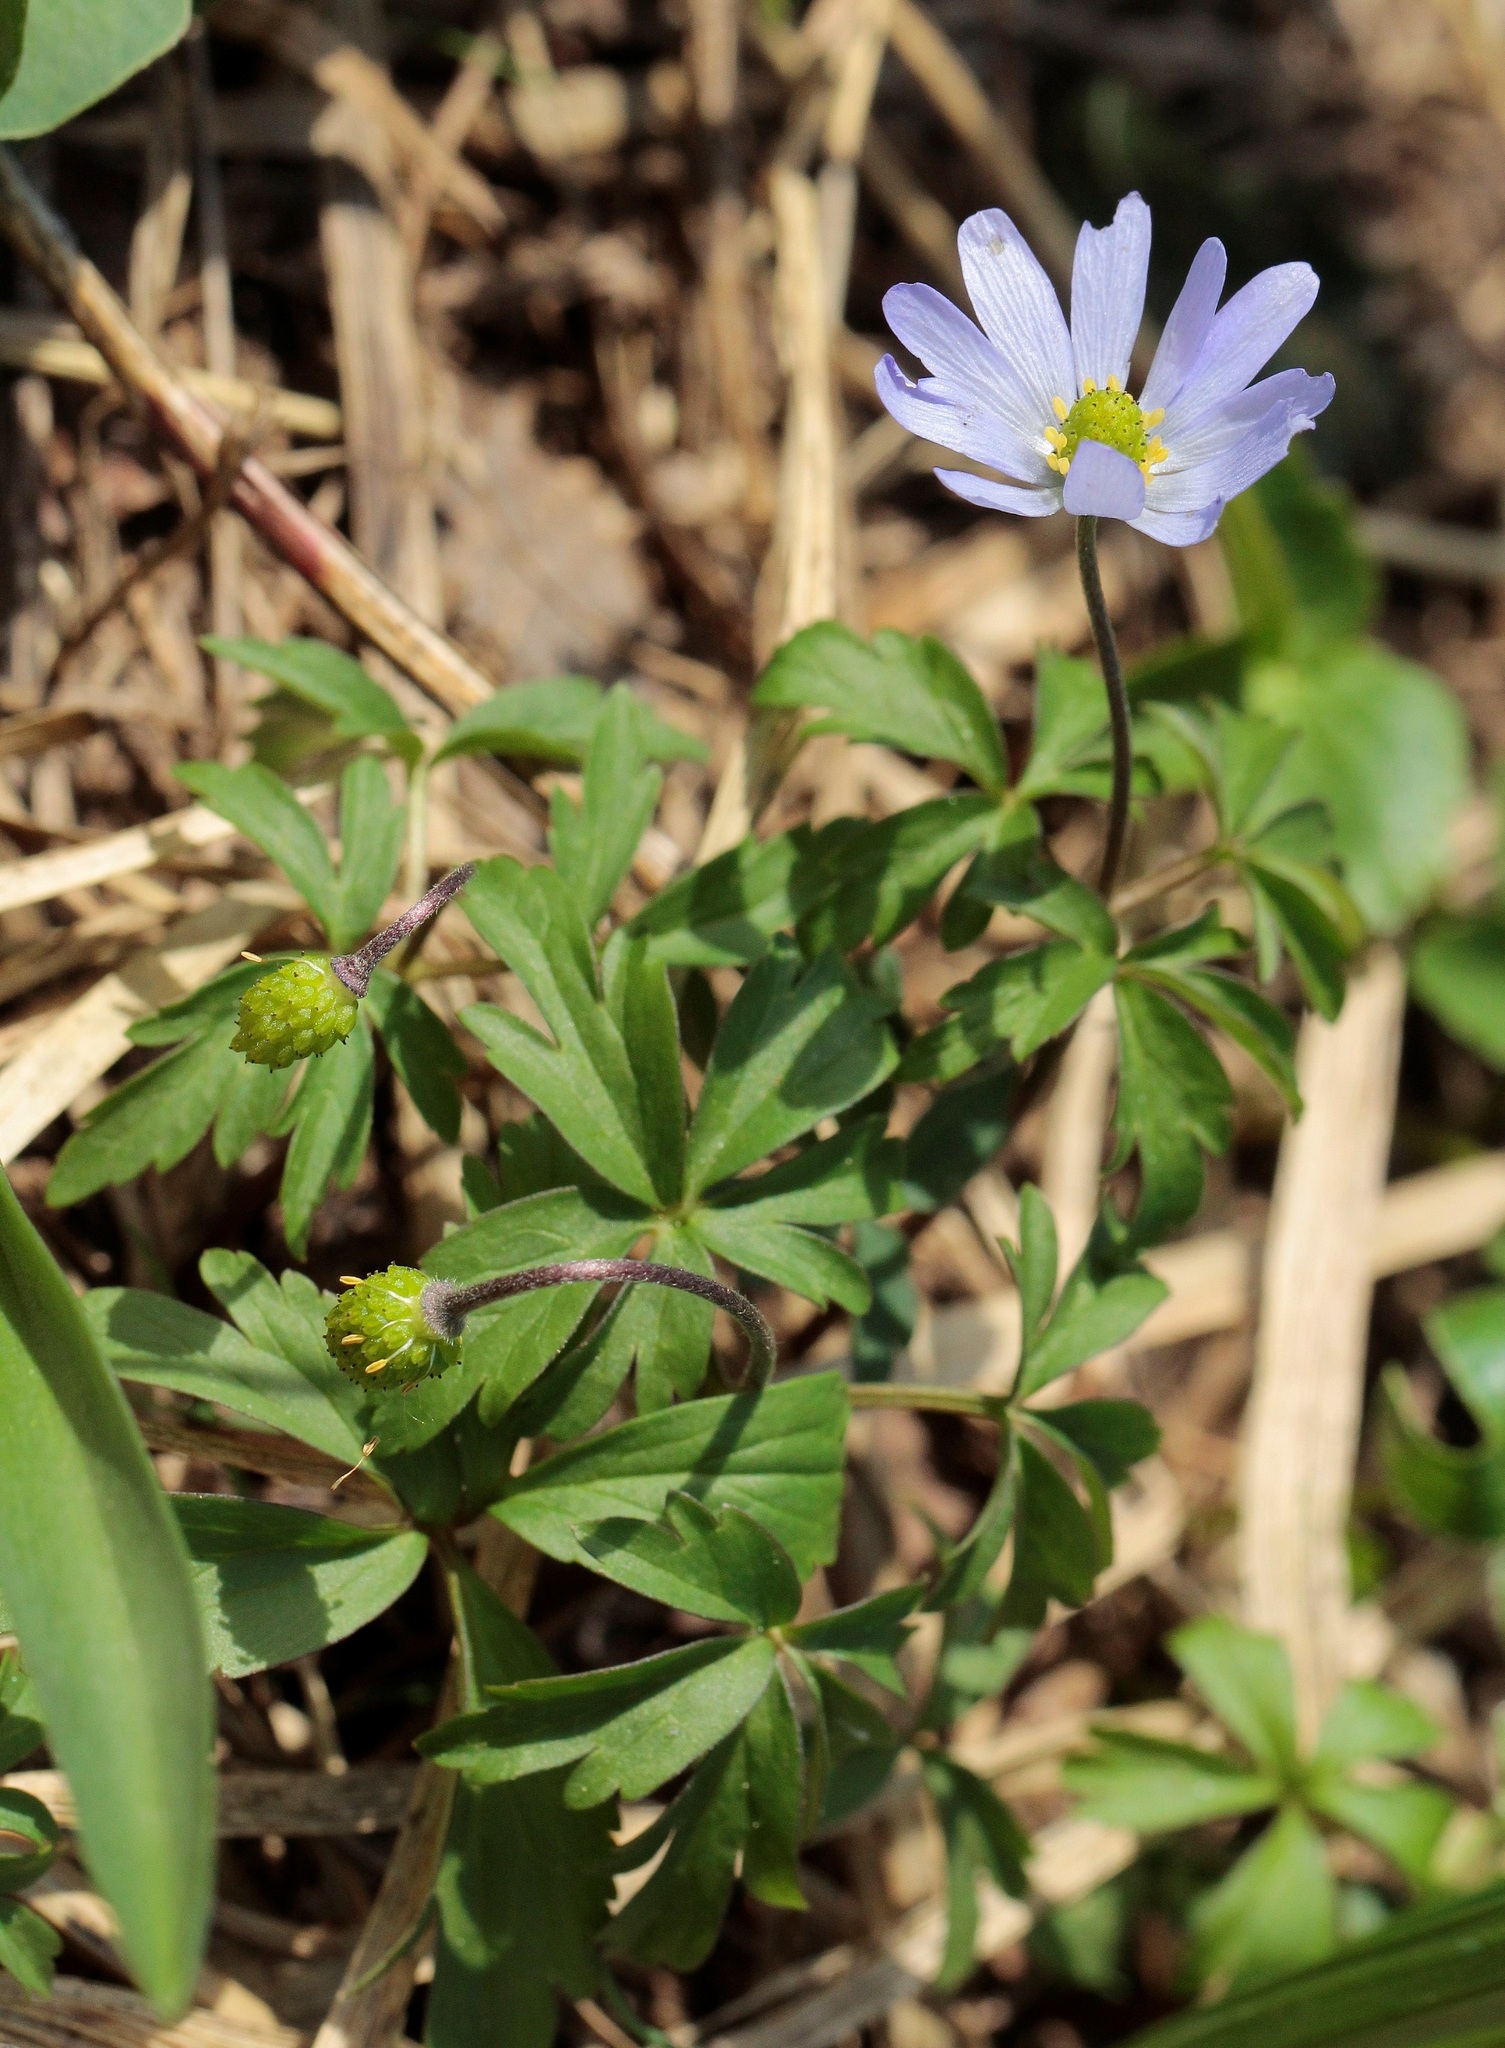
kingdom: Plantae
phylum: Tracheophyta
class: Magnoliopsida
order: Ranunculales
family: Ranunculaceae
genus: Anemone
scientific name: Anemone caucasica
